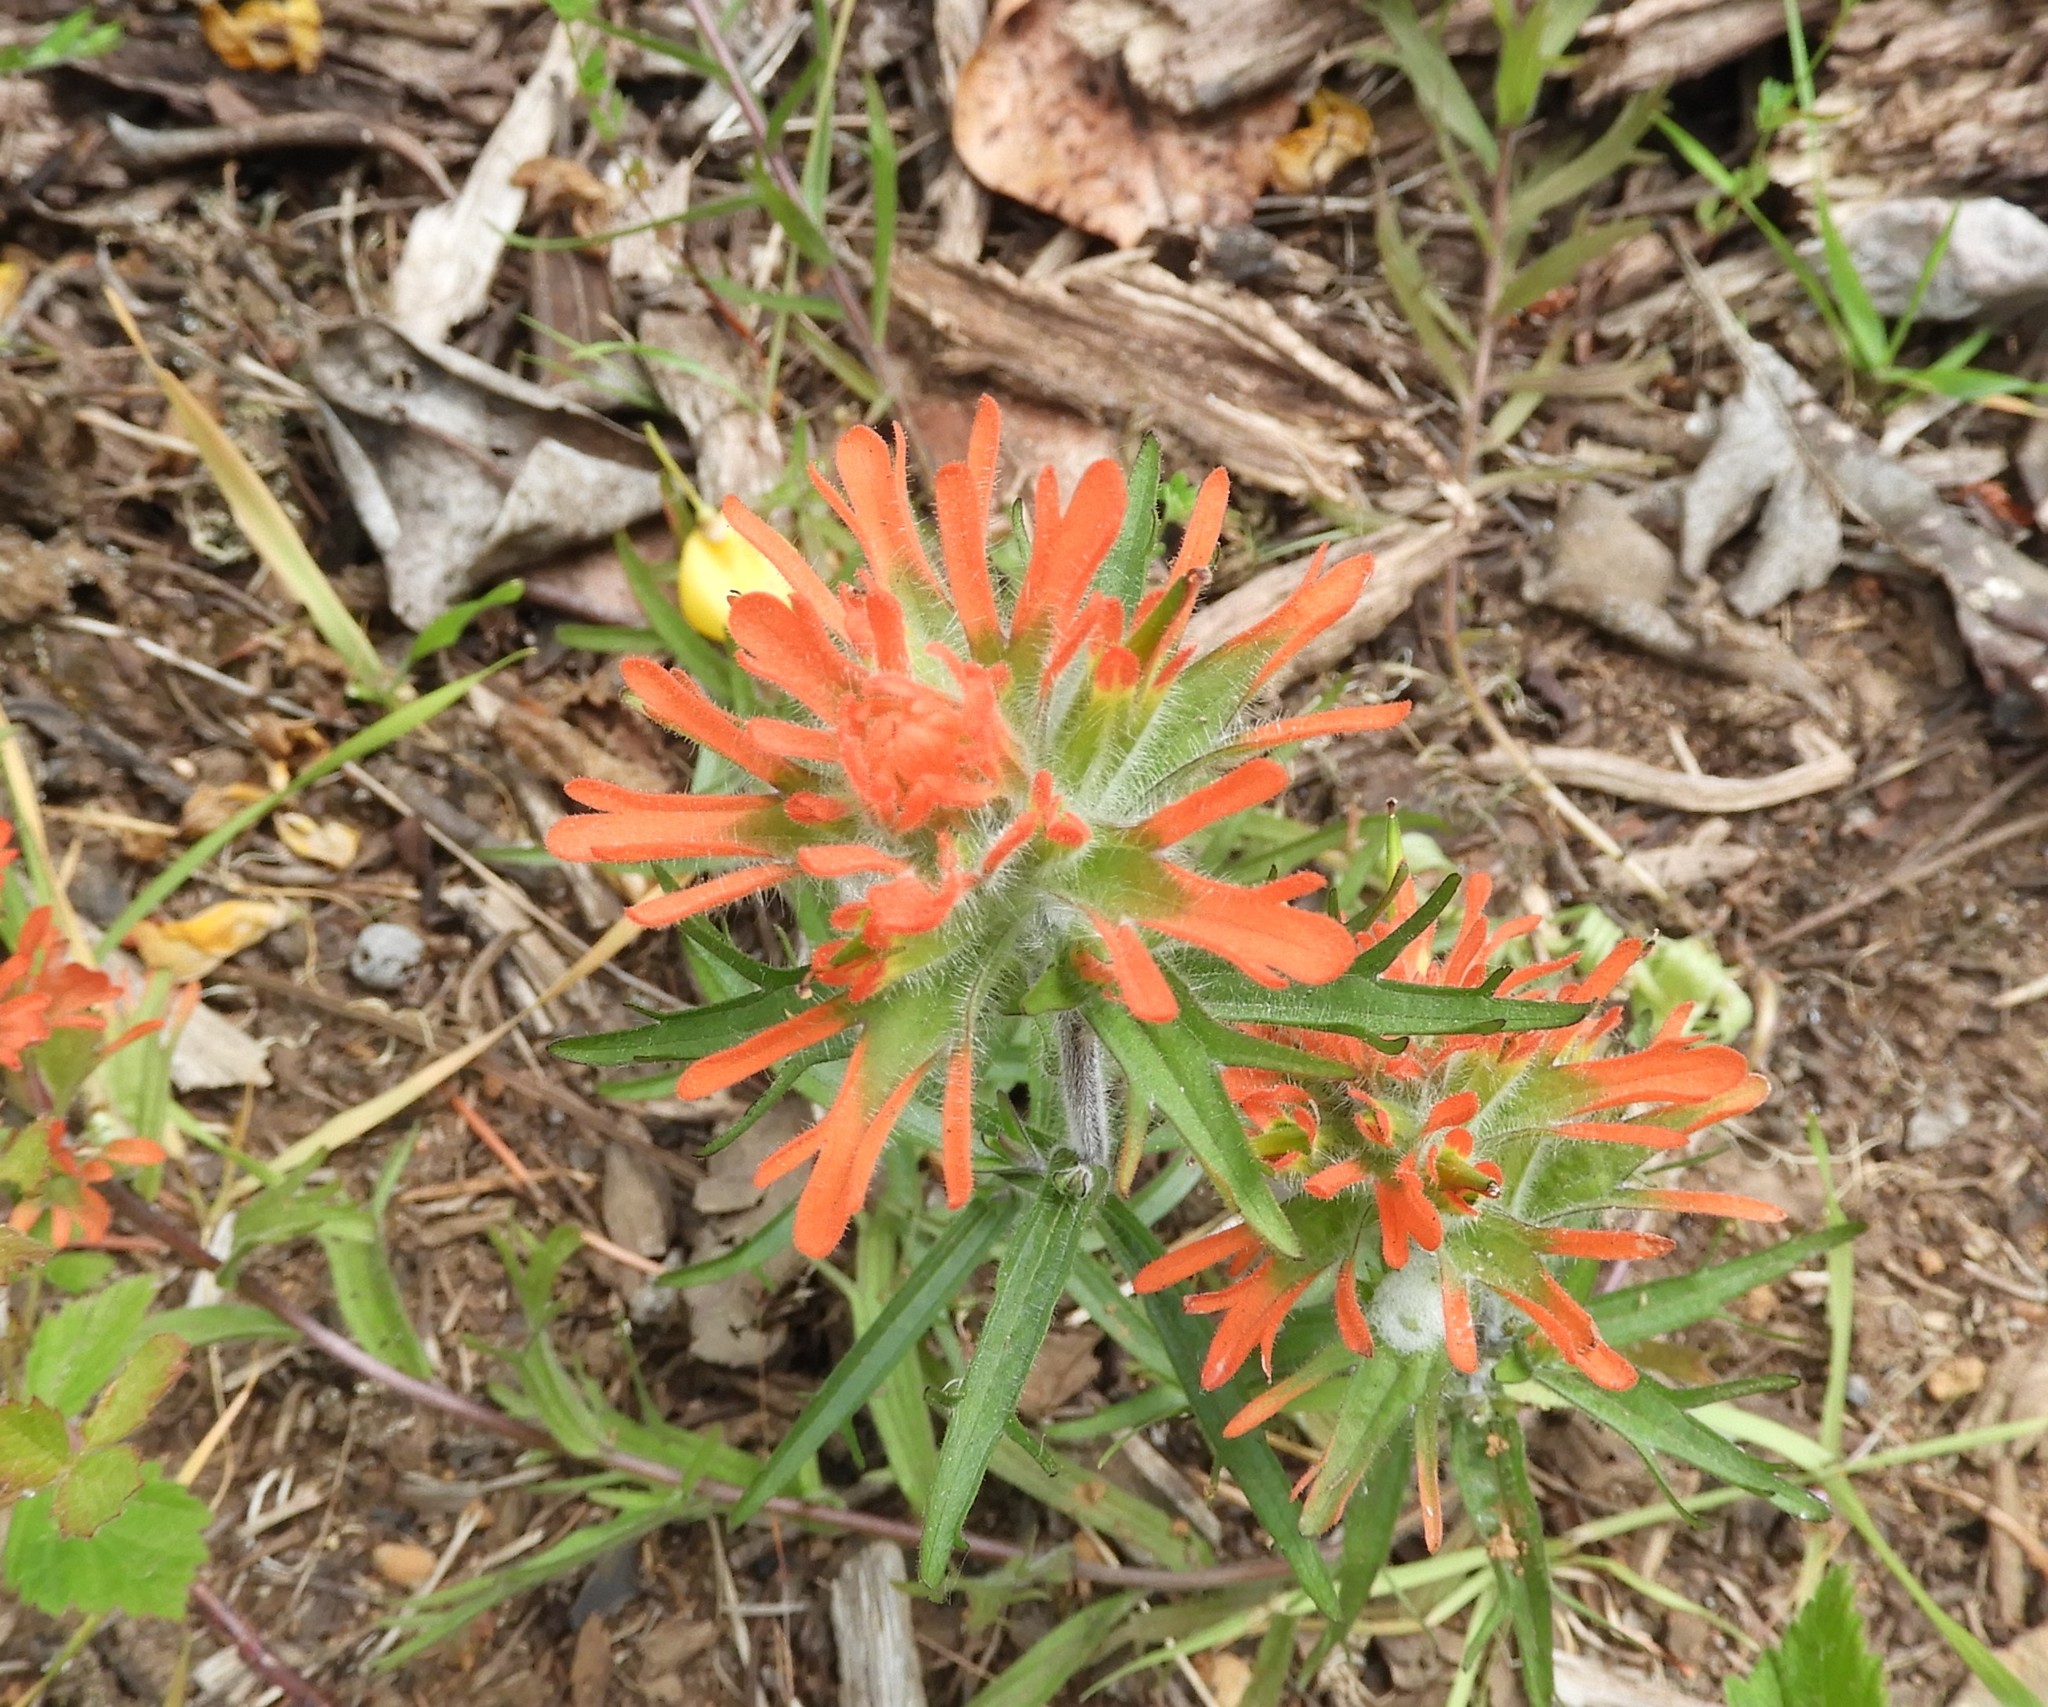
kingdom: Plantae
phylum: Tracheophyta
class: Magnoliopsida
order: Lamiales
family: Orobanchaceae
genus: Castilleja
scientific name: Castilleja hispida
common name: Bristly paintbrush
